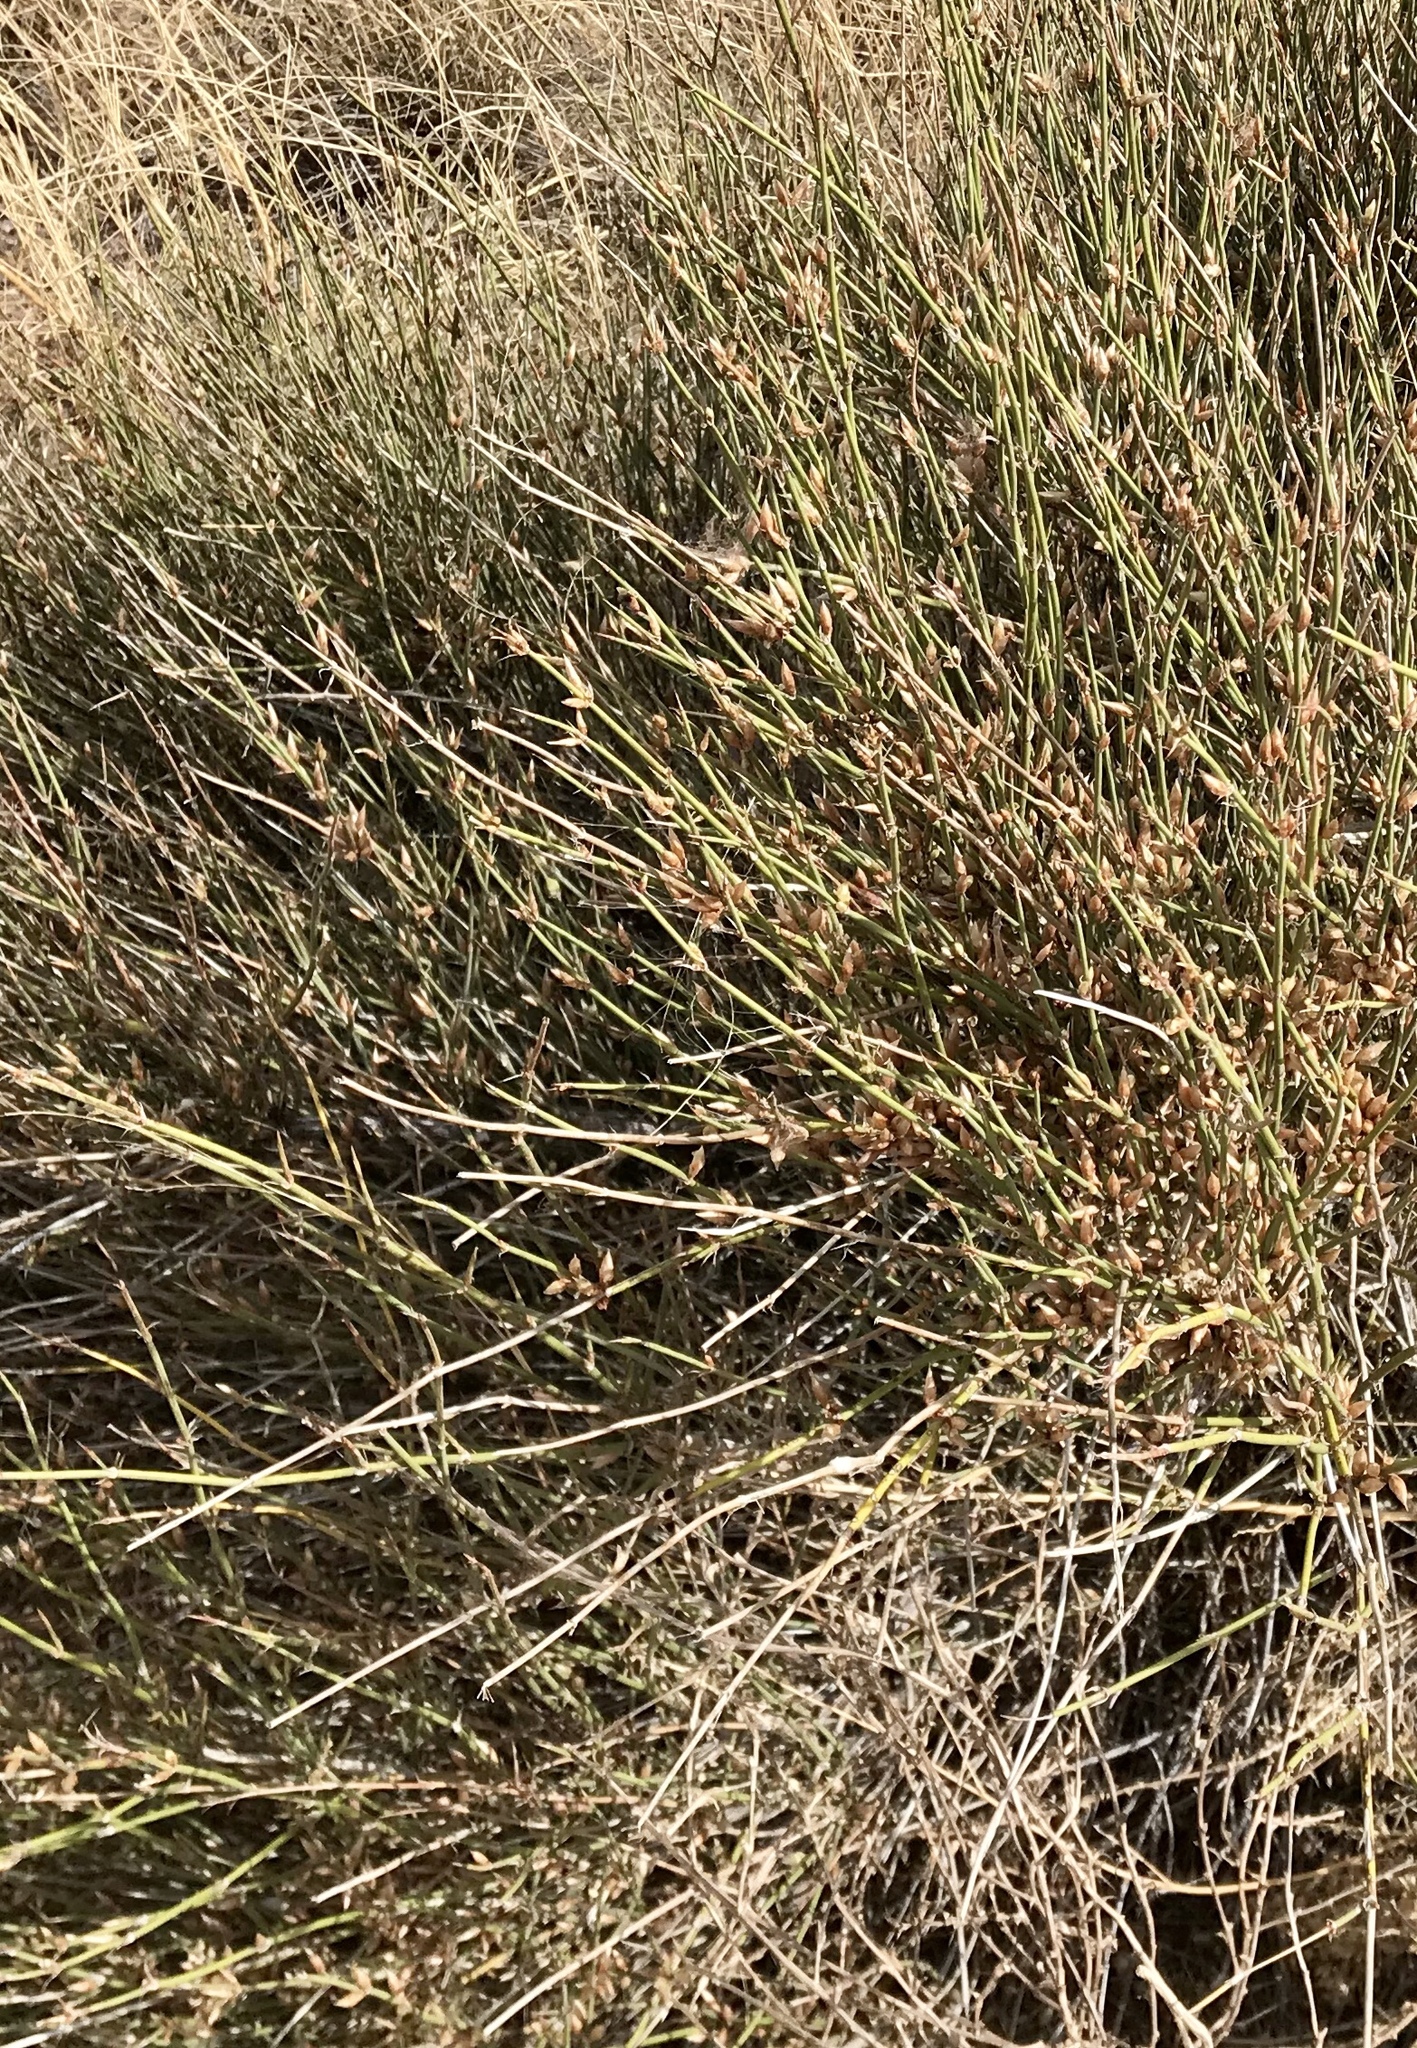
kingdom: Plantae
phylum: Tracheophyta
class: Gnetopsida
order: Ephedrales
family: Ephedraceae
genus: Ephedra
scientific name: Ephedra trifurca
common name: Mexican-tea
